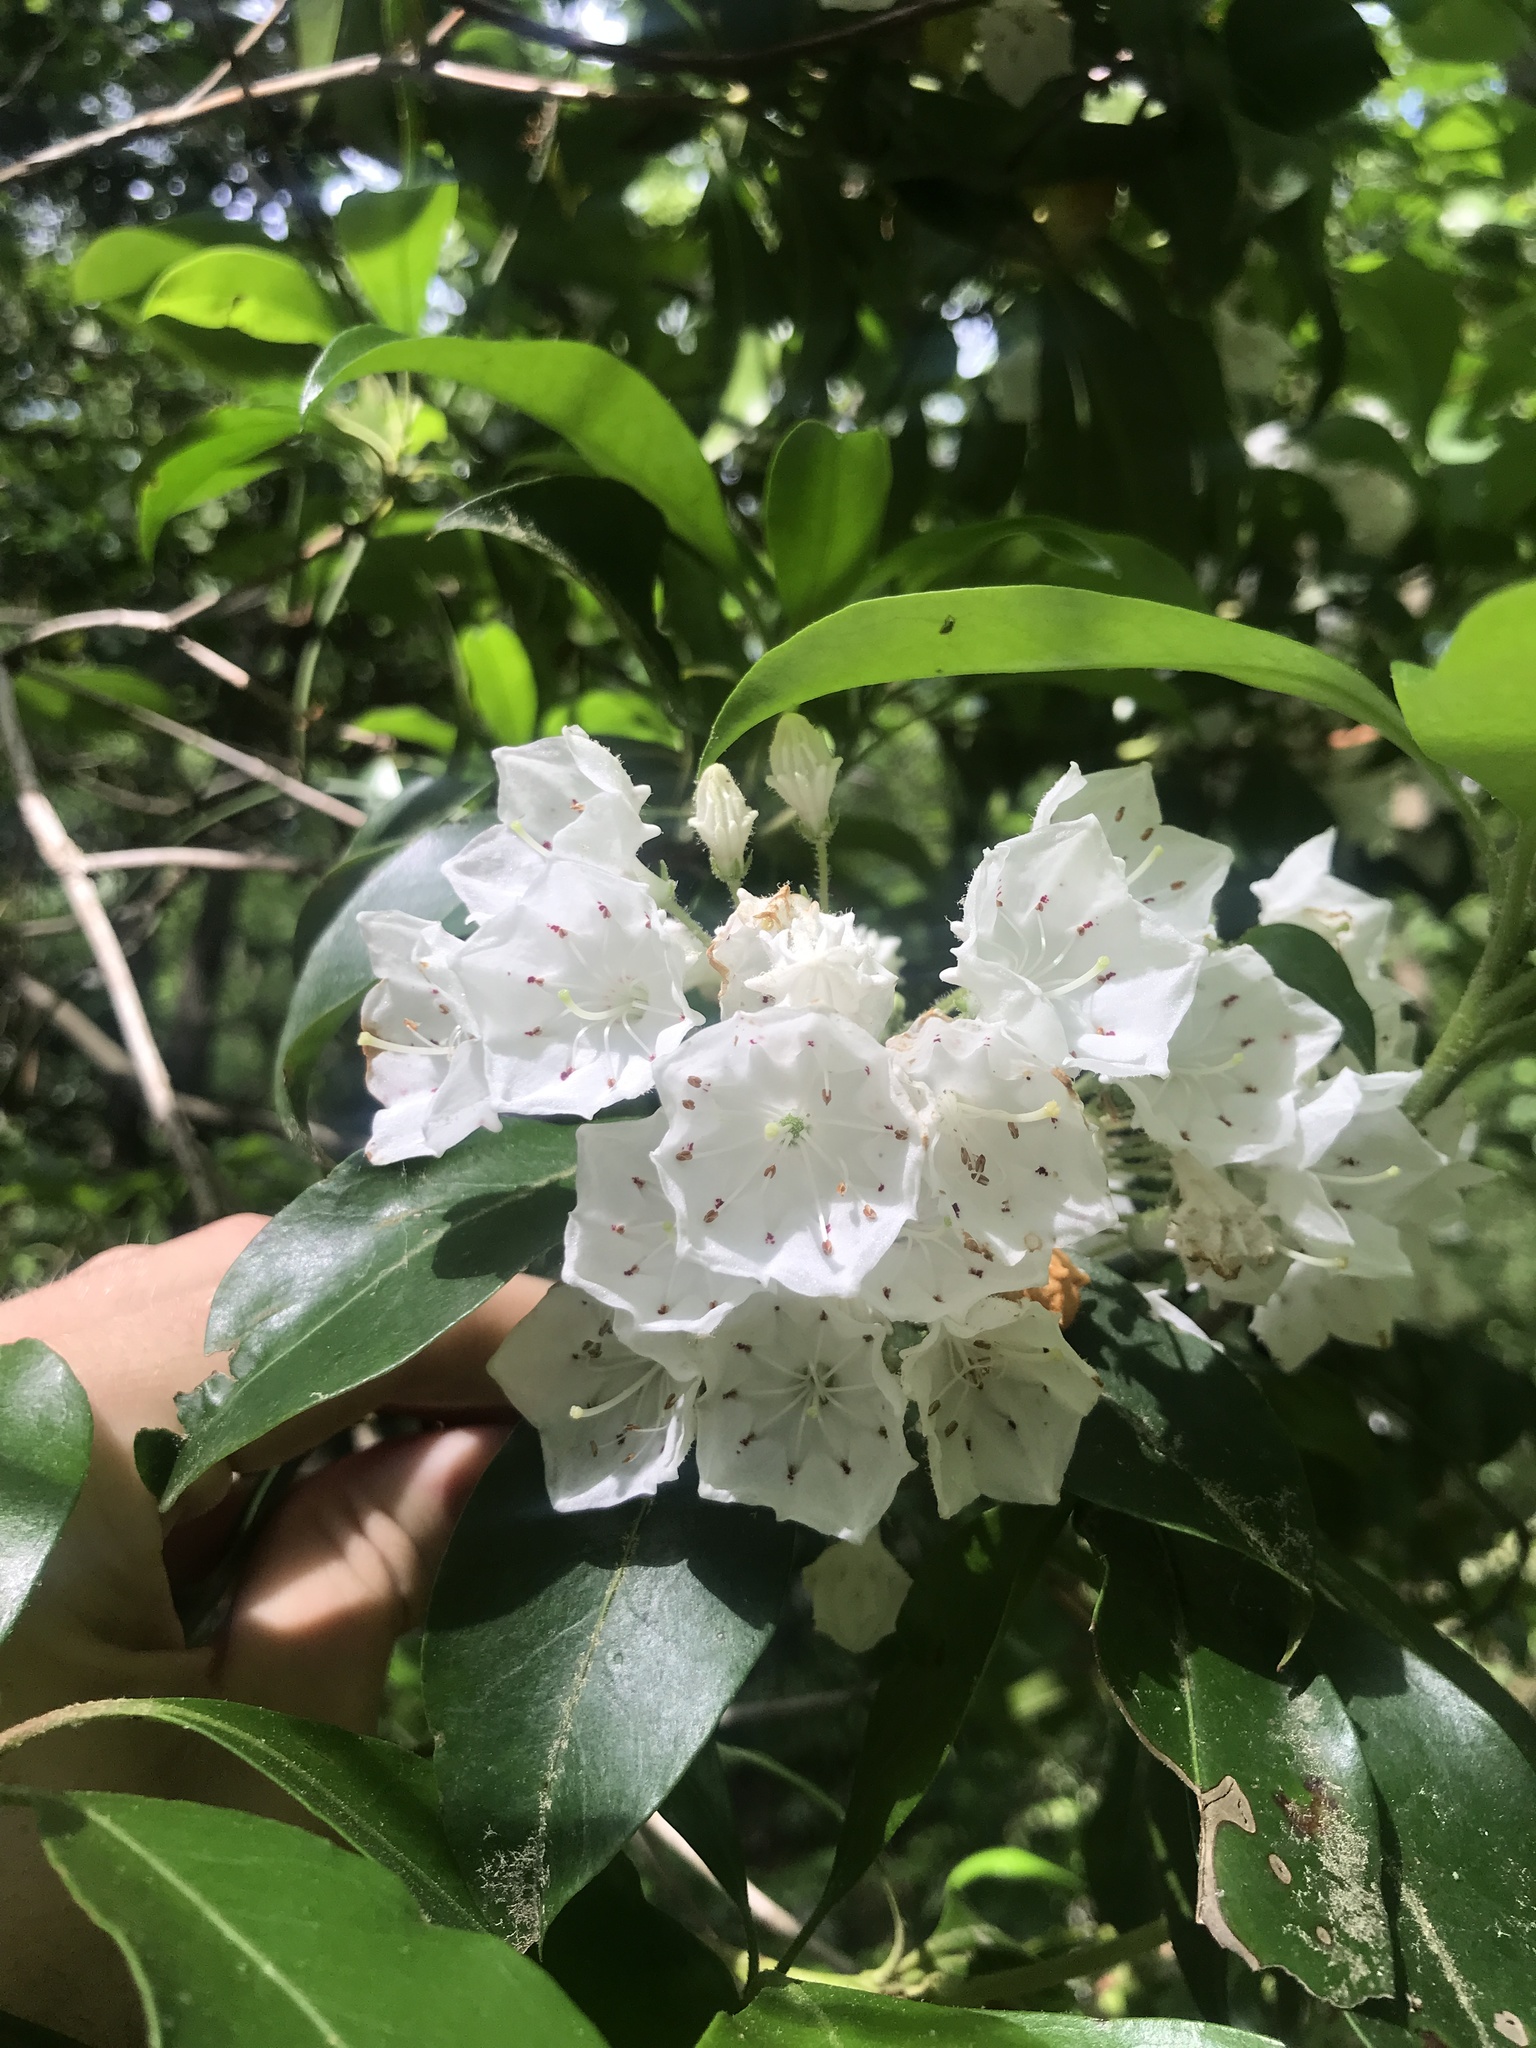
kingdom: Plantae
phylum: Tracheophyta
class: Magnoliopsida
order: Ericales
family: Ericaceae
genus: Kalmia
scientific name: Kalmia latifolia
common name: Mountain-laurel
